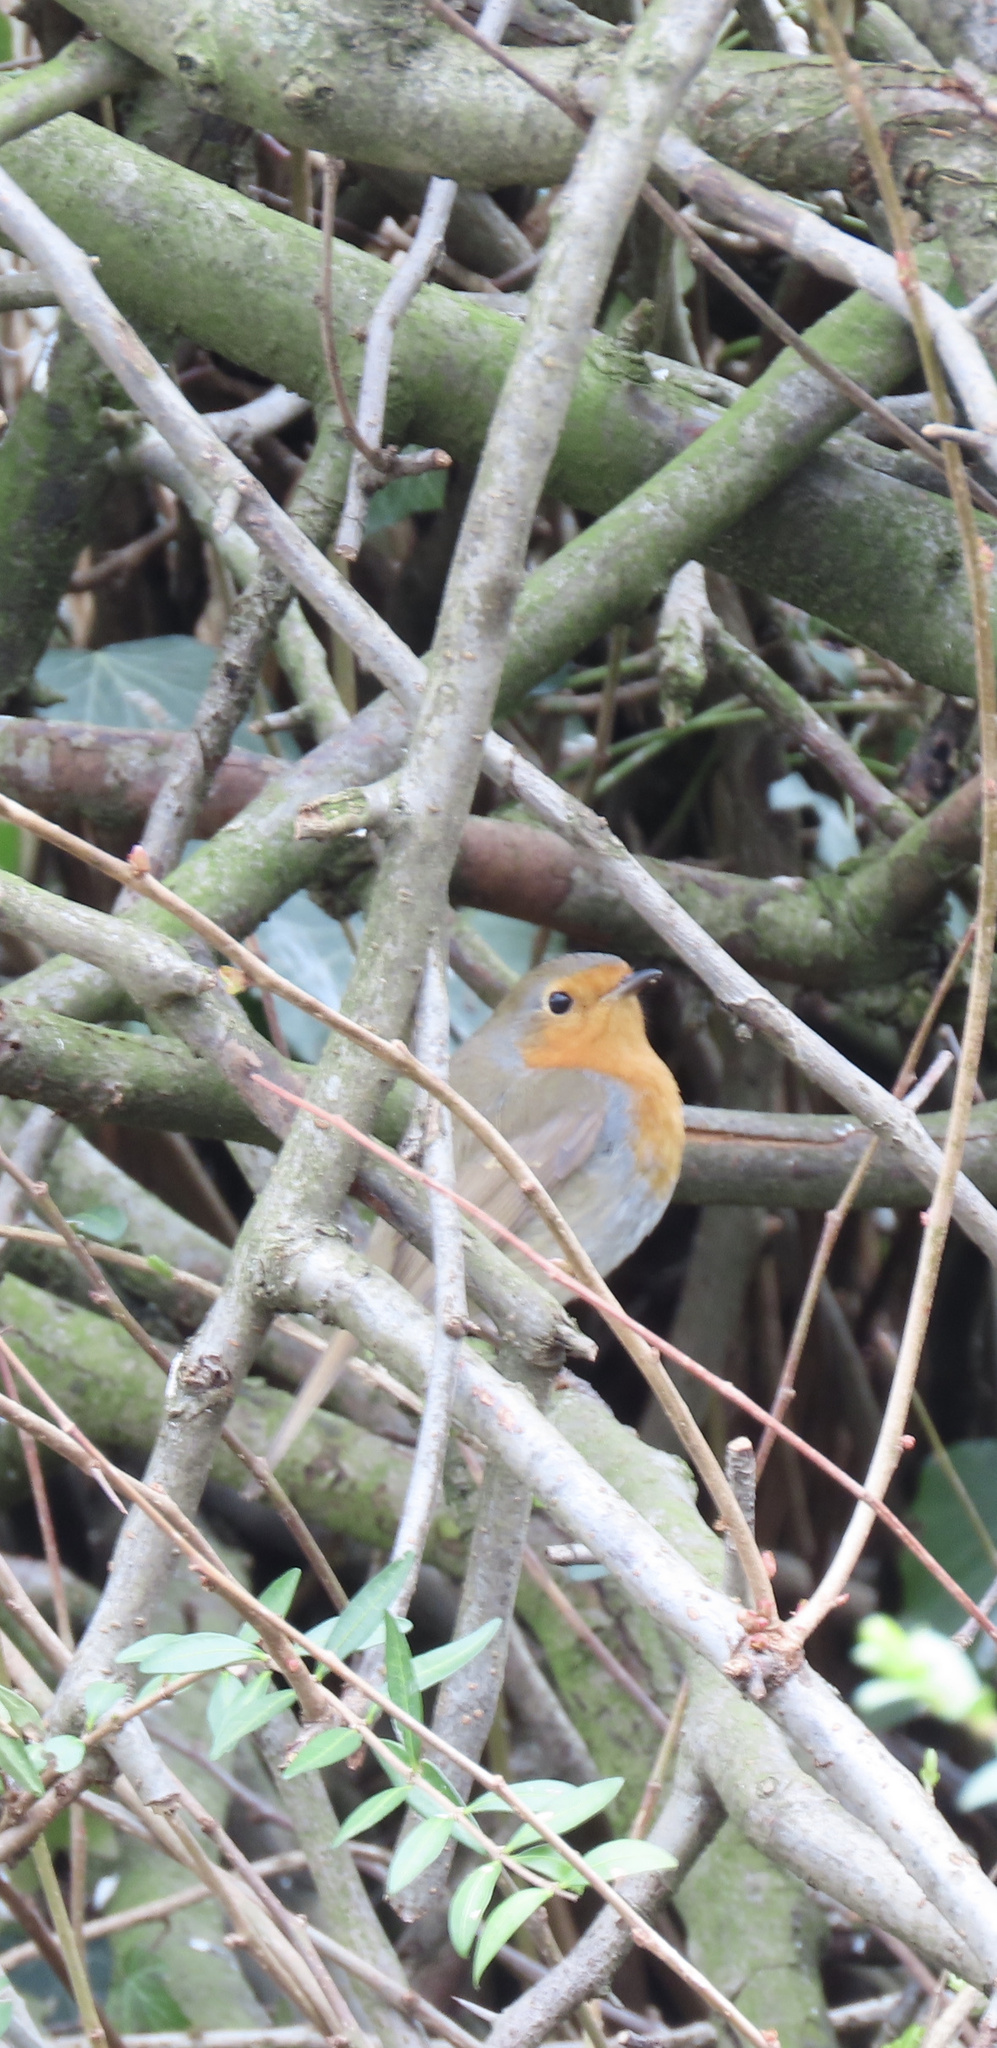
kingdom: Animalia
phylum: Chordata
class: Aves
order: Passeriformes
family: Muscicapidae
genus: Erithacus
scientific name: Erithacus rubecula
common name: European robin
